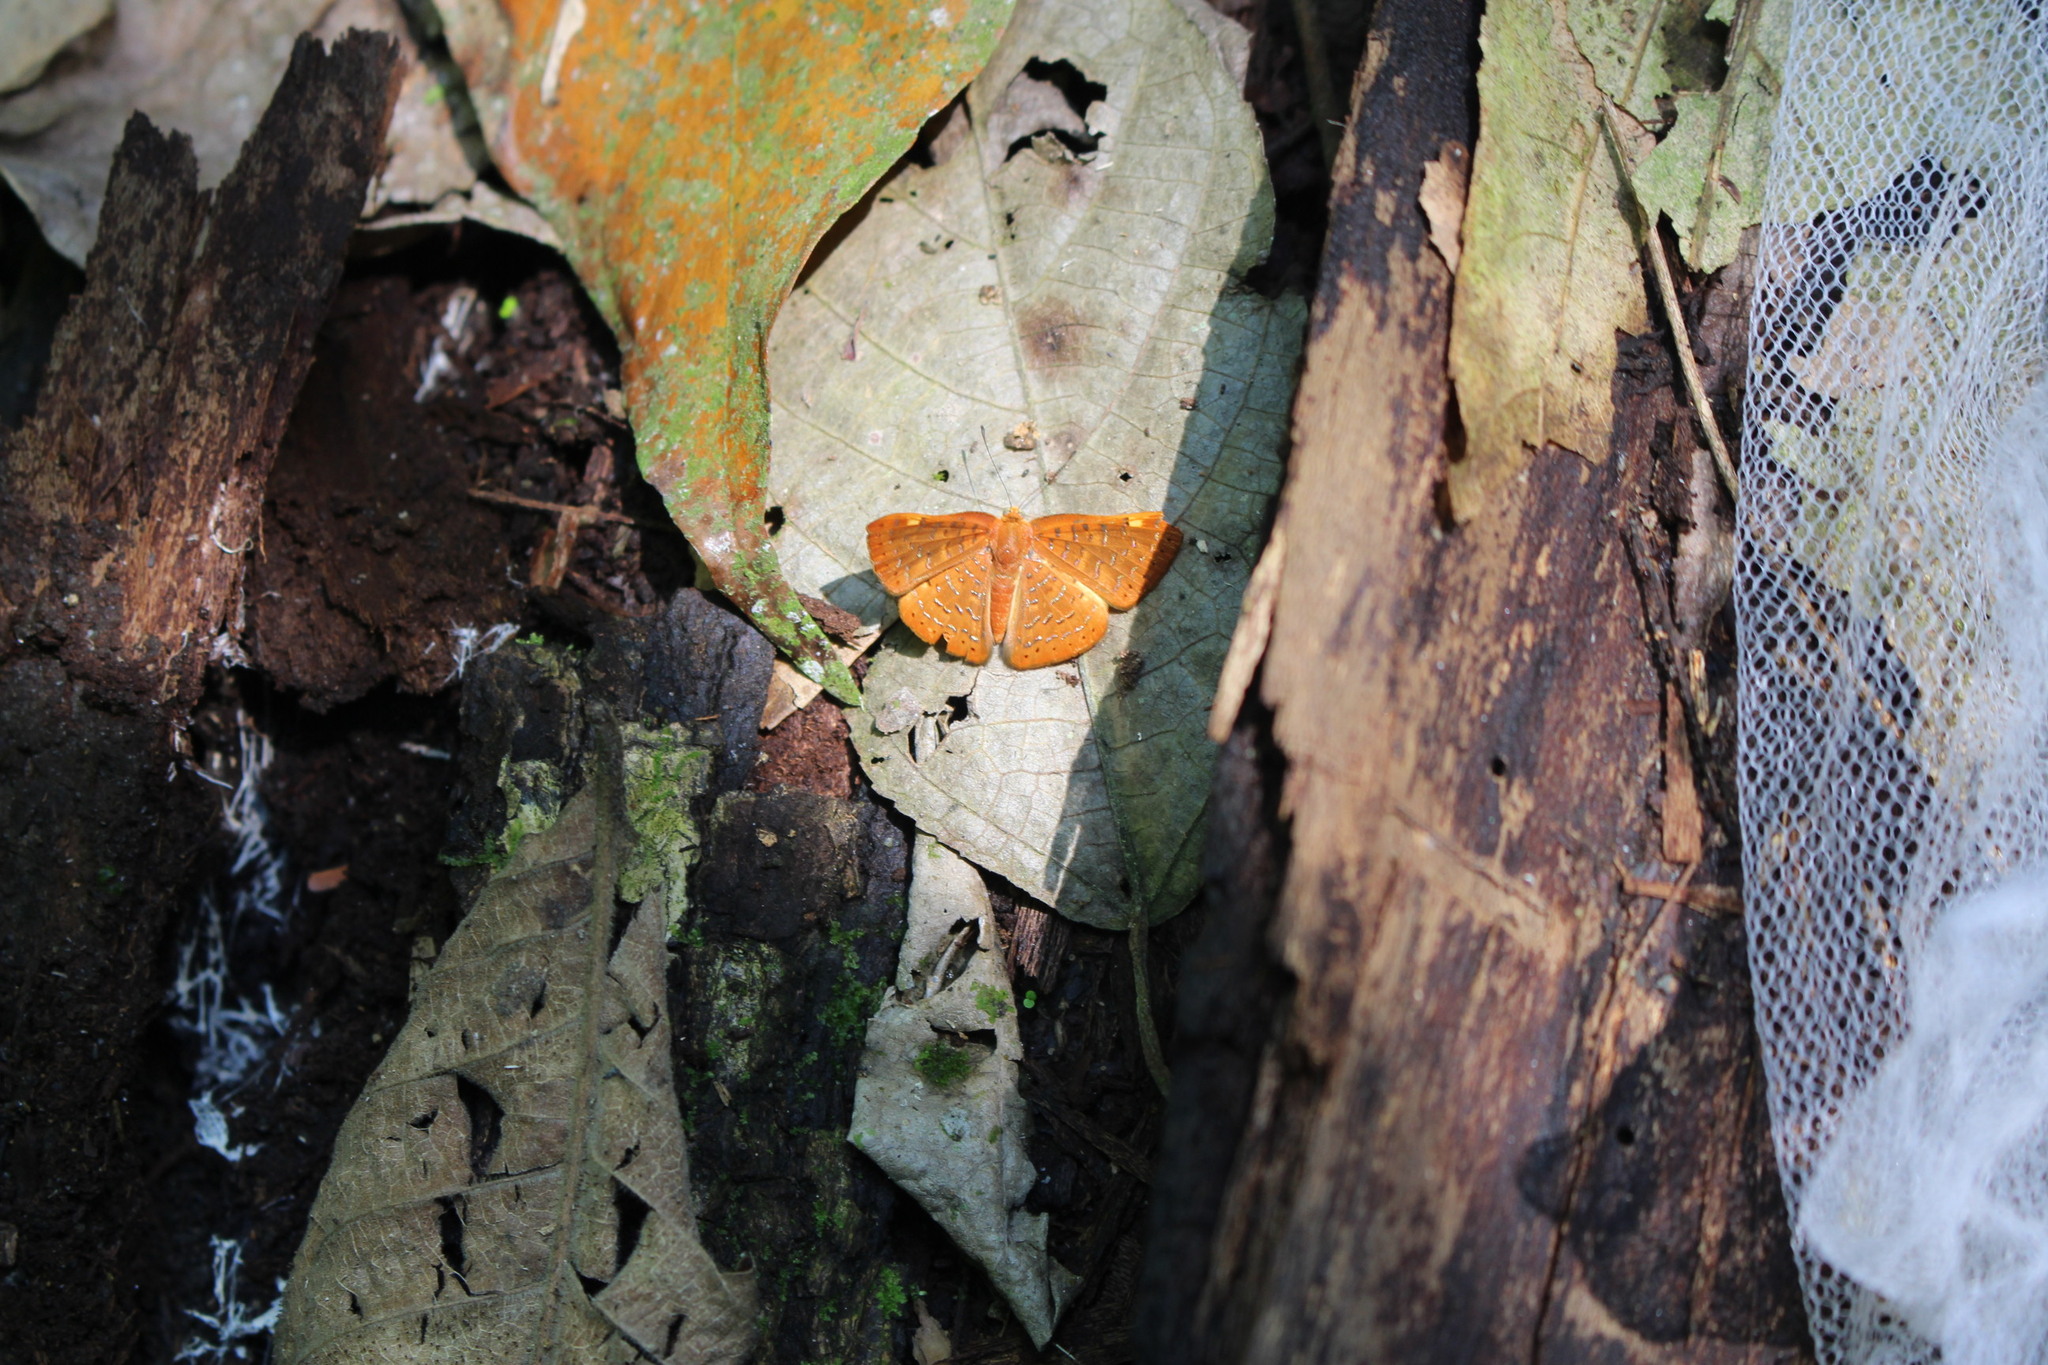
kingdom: Animalia
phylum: Arthropoda
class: Insecta
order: Lepidoptera
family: Lycaenidae
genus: Emesis
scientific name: Emesis cereus
